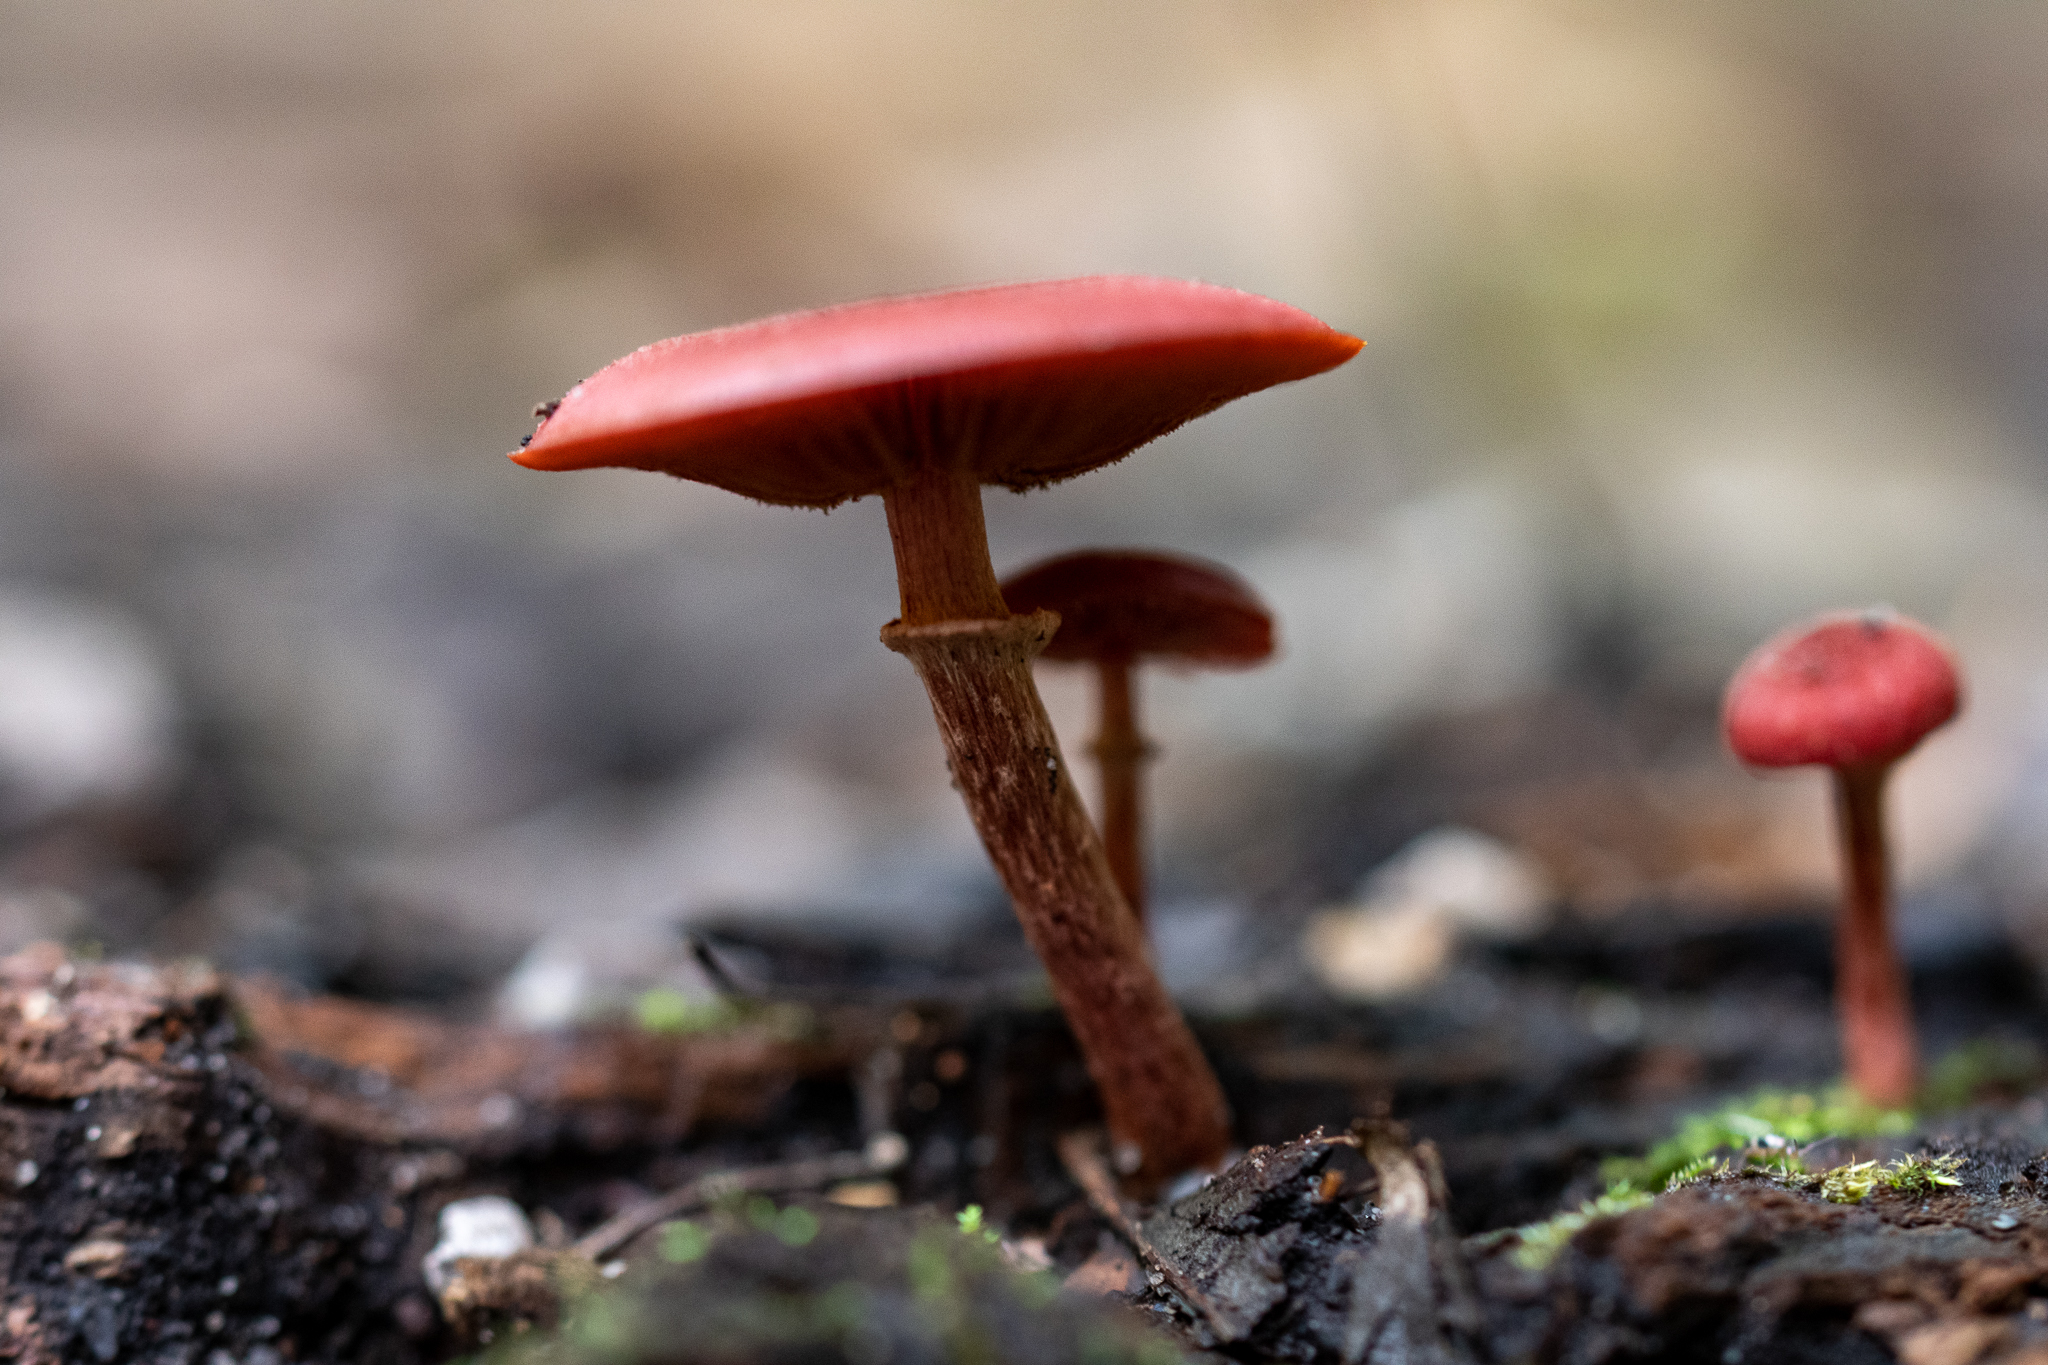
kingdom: Fungi
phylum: Basidiomycota
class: Agaricomycetes
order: Agaricales
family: Tubariaceae
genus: Tubaria
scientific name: Tubaria rufofulva
